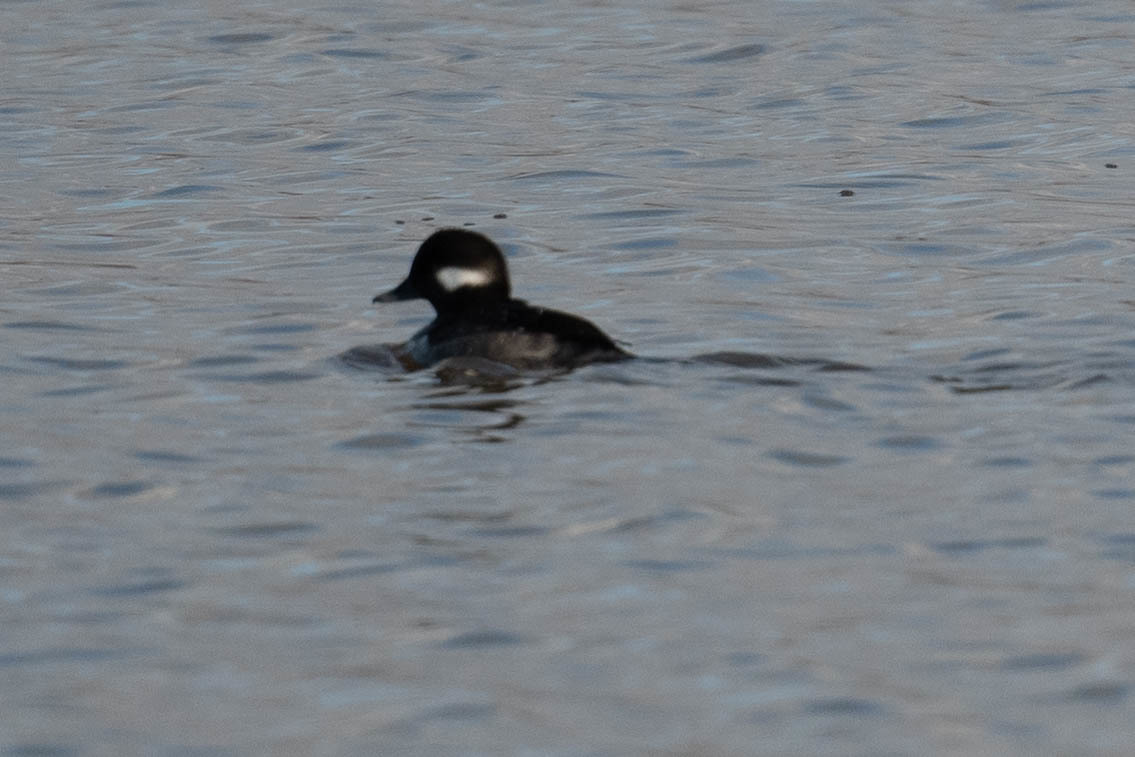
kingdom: Animalia
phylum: Chordata
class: Aves
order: Anseriformes
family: Anatidae
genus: Bucephala
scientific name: Bucephala albeola
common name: Bufflehead
